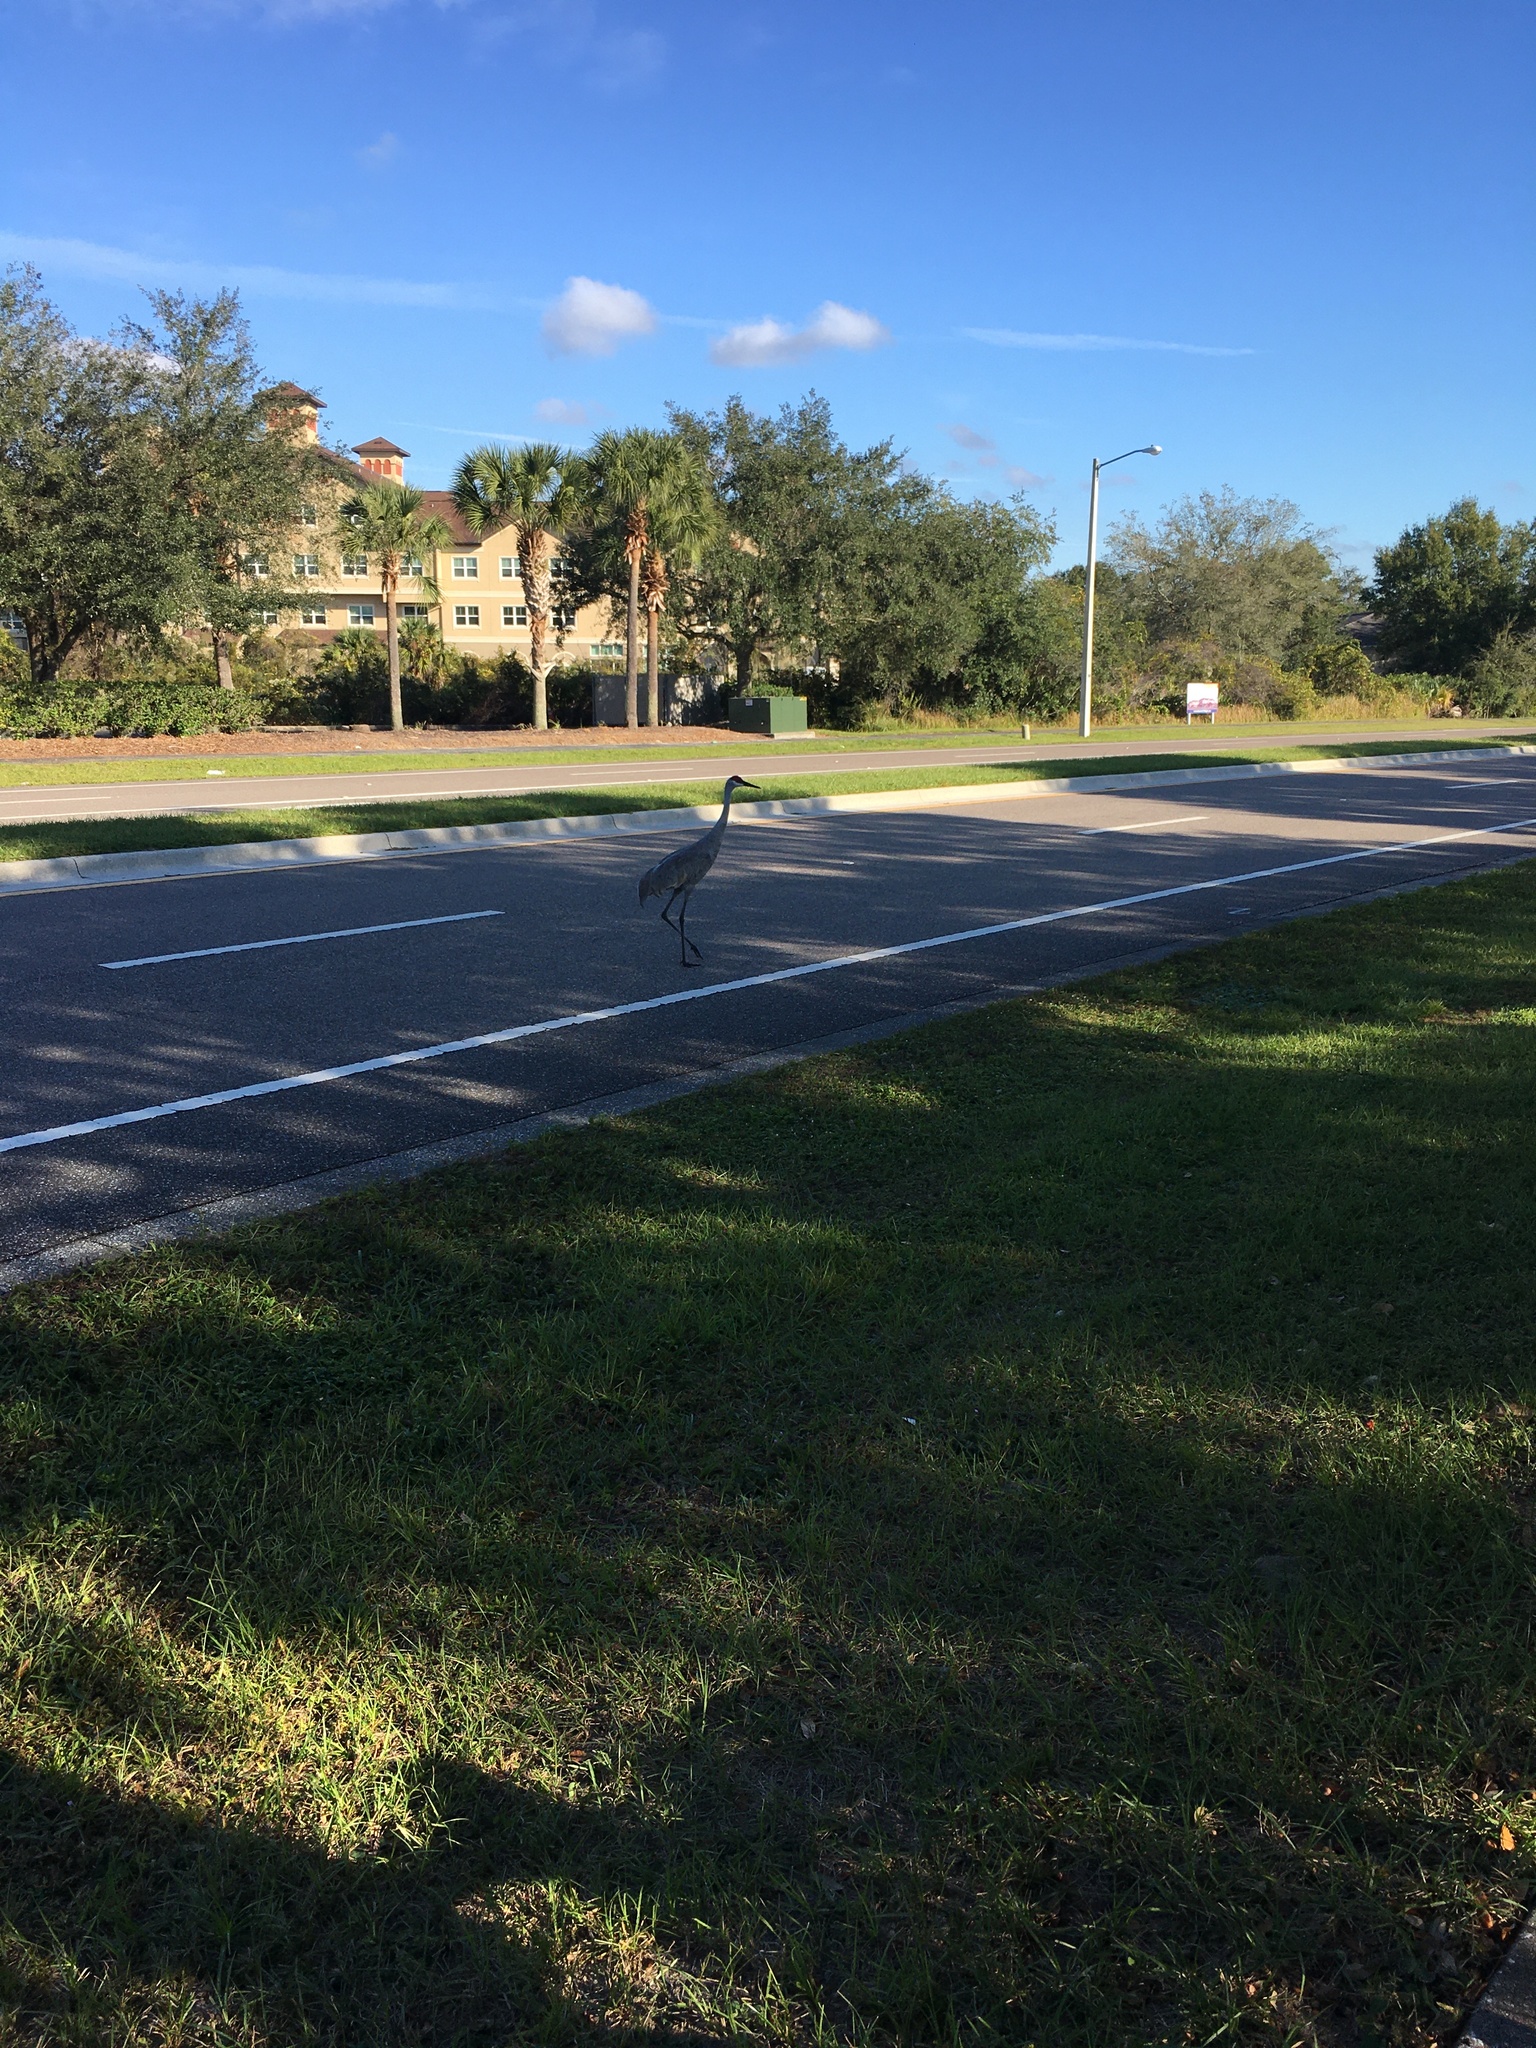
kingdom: Animalia
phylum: Chordata
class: Aves
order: Gruiformes
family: Gruidae
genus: Grus
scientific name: Grus canadensis
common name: Sandhill crane
